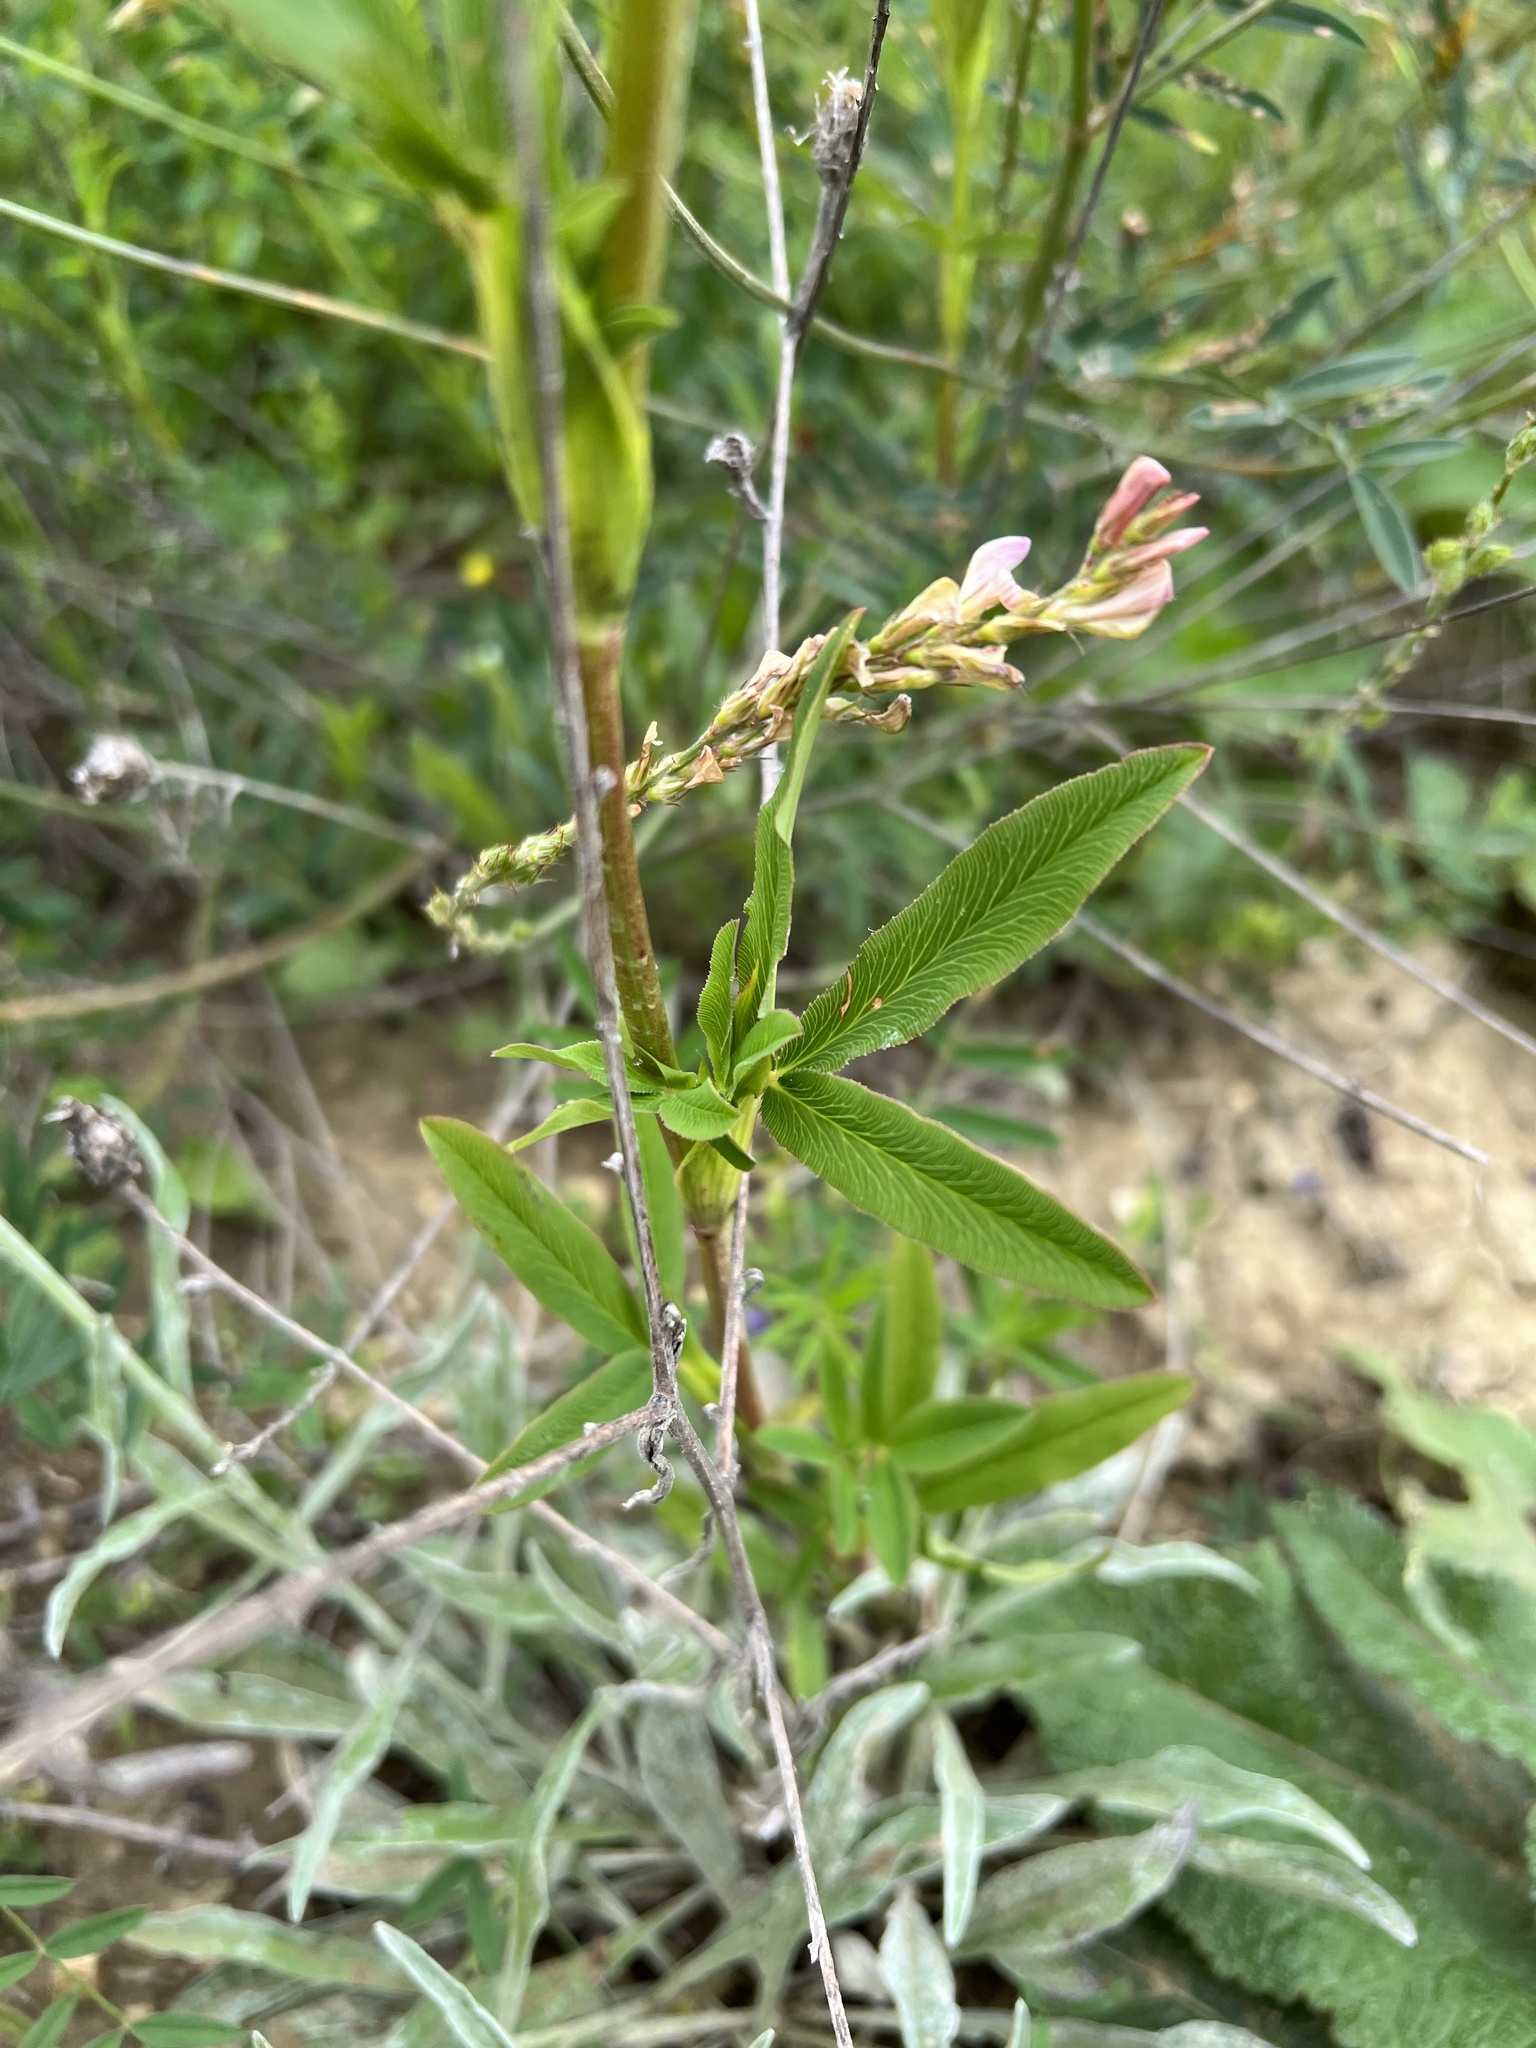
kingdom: Plantae
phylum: Tracheophyta
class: Magnoliopsida
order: Fabales
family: Fabaceae
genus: Trifolium
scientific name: Trifolium rubens
